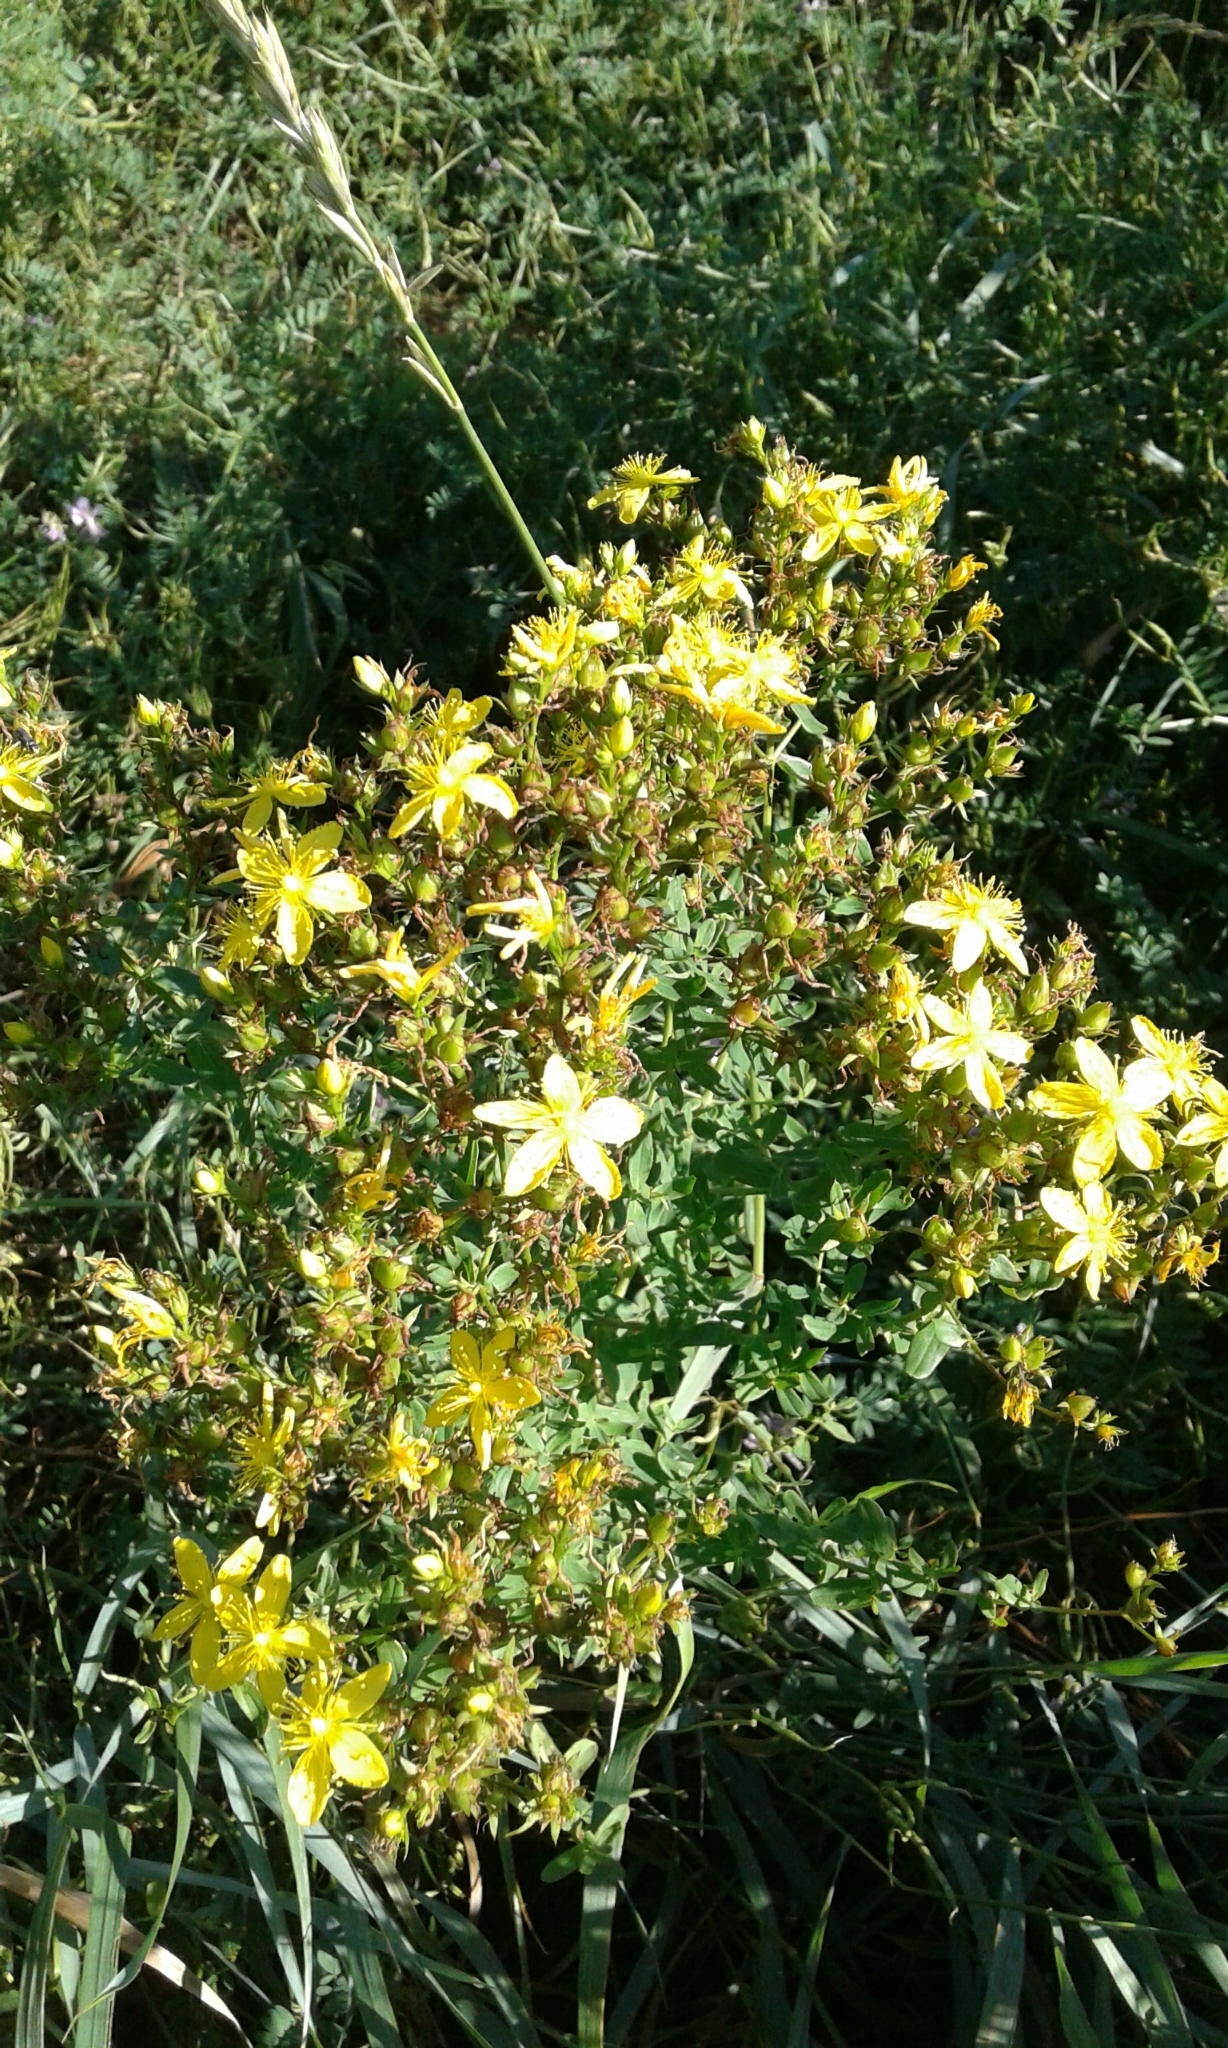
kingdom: Plantae
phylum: Tracheophyta
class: Magnoliopsida
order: Malpighiales
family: Hypericaceae
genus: Hypericum
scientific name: Hypericum perforatum
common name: Common st. johnswort
